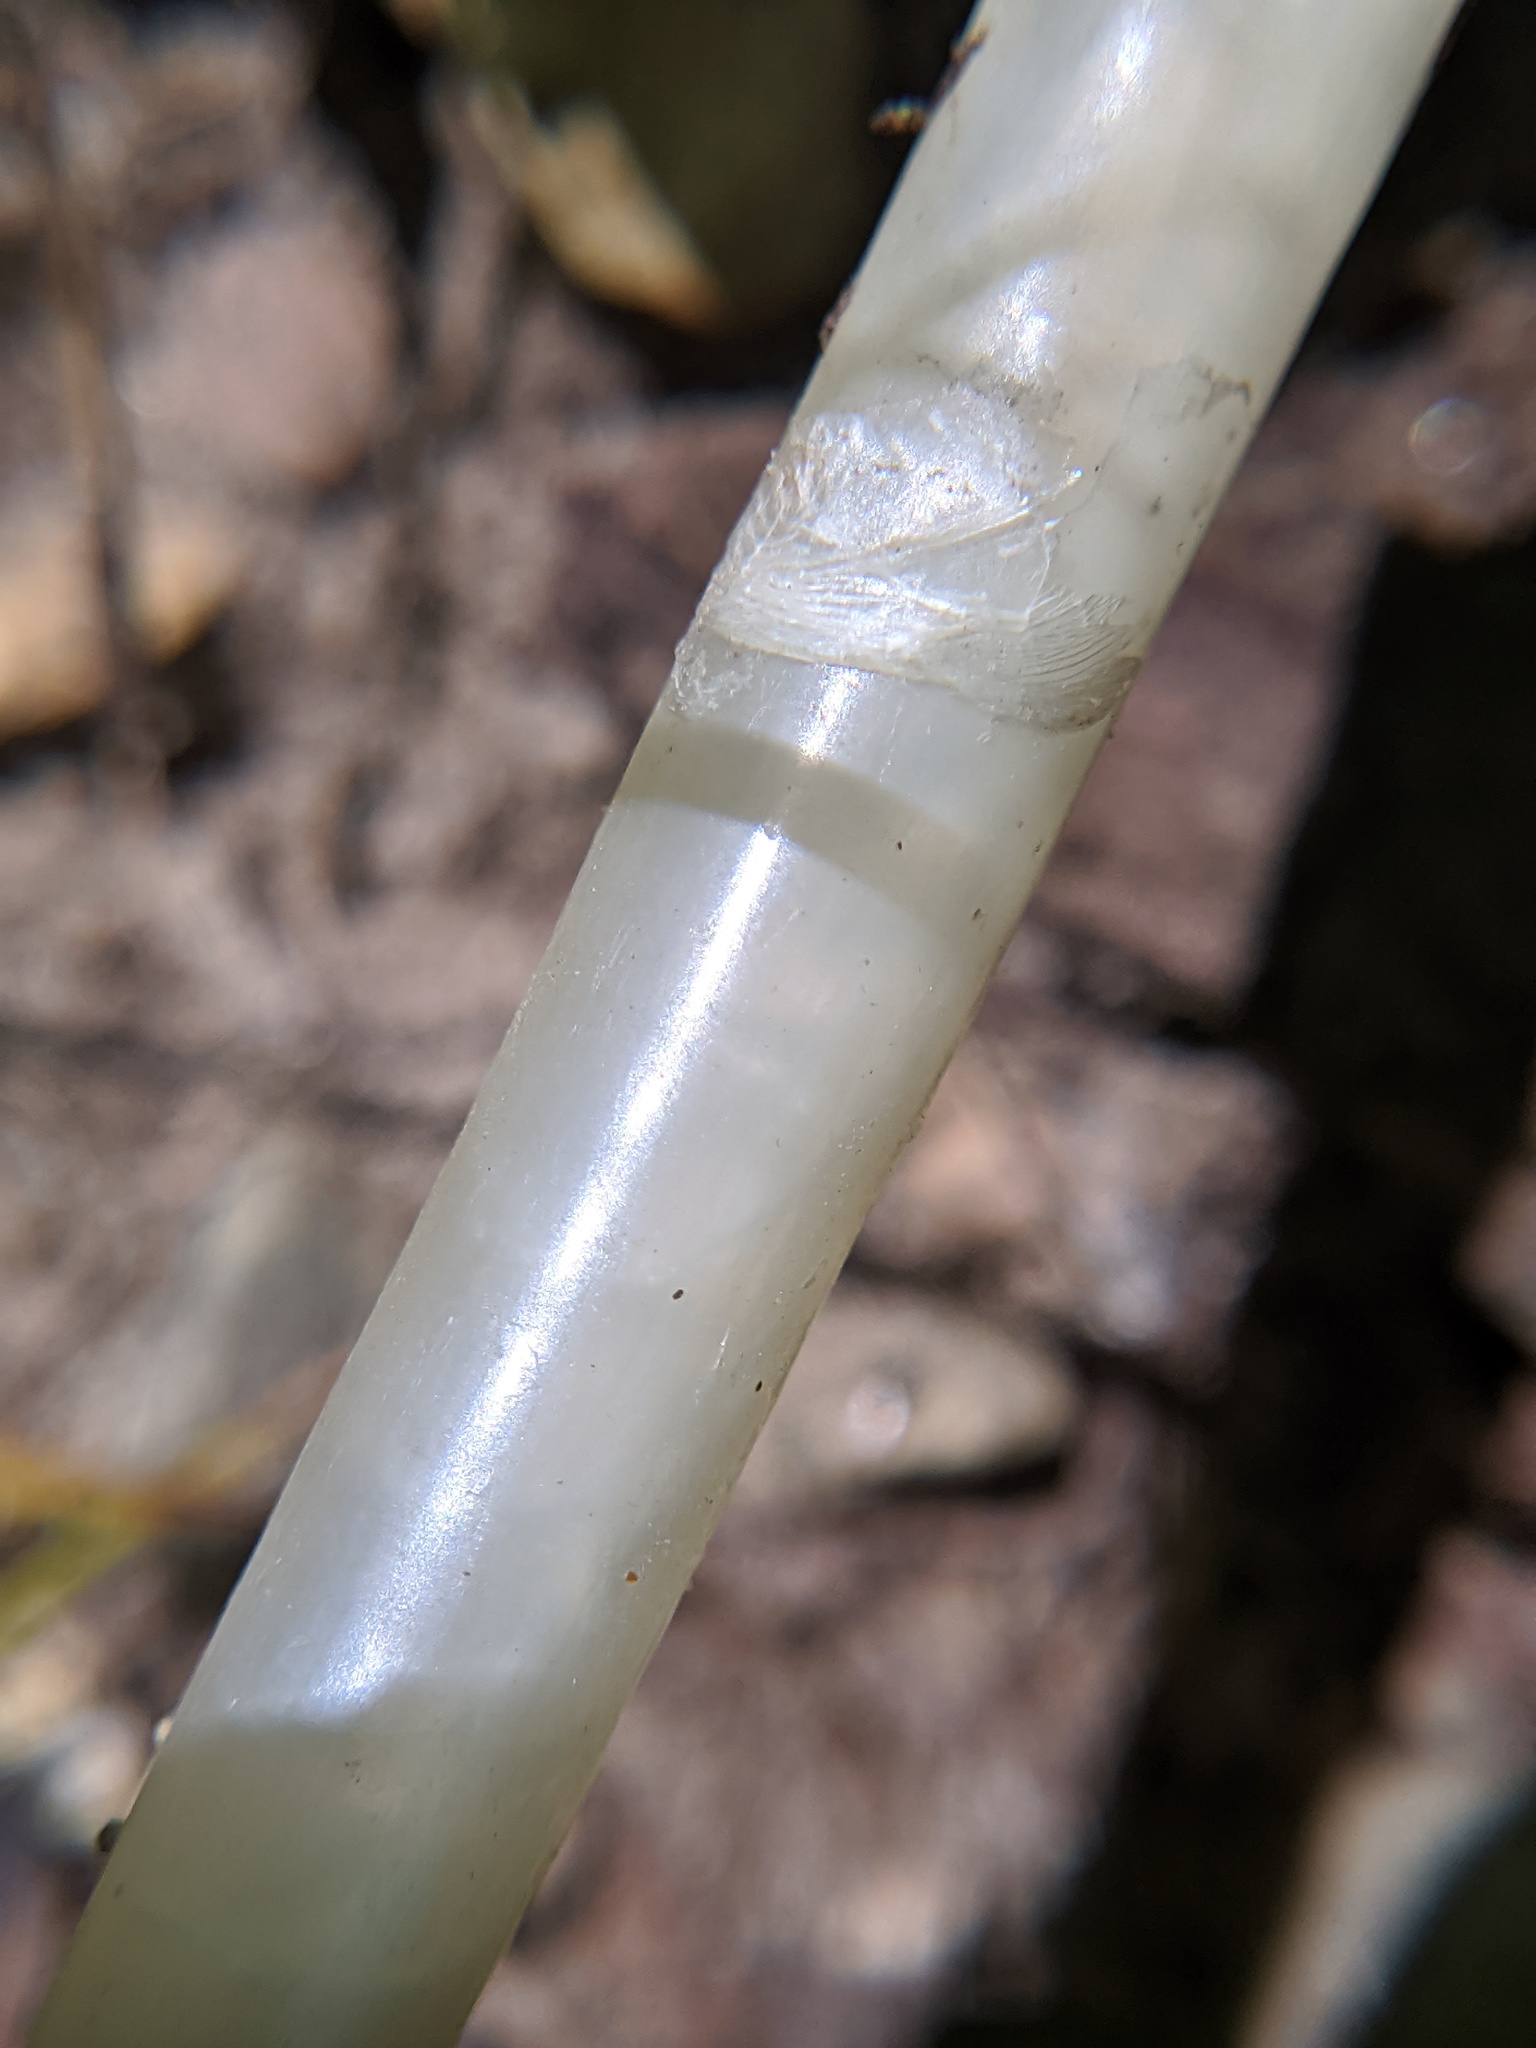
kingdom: Animalia
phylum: Chordata
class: Aves
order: Galliformes
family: Phasianidae
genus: Meleagris
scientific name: Meleagris gallopavo
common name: Wild turkey
